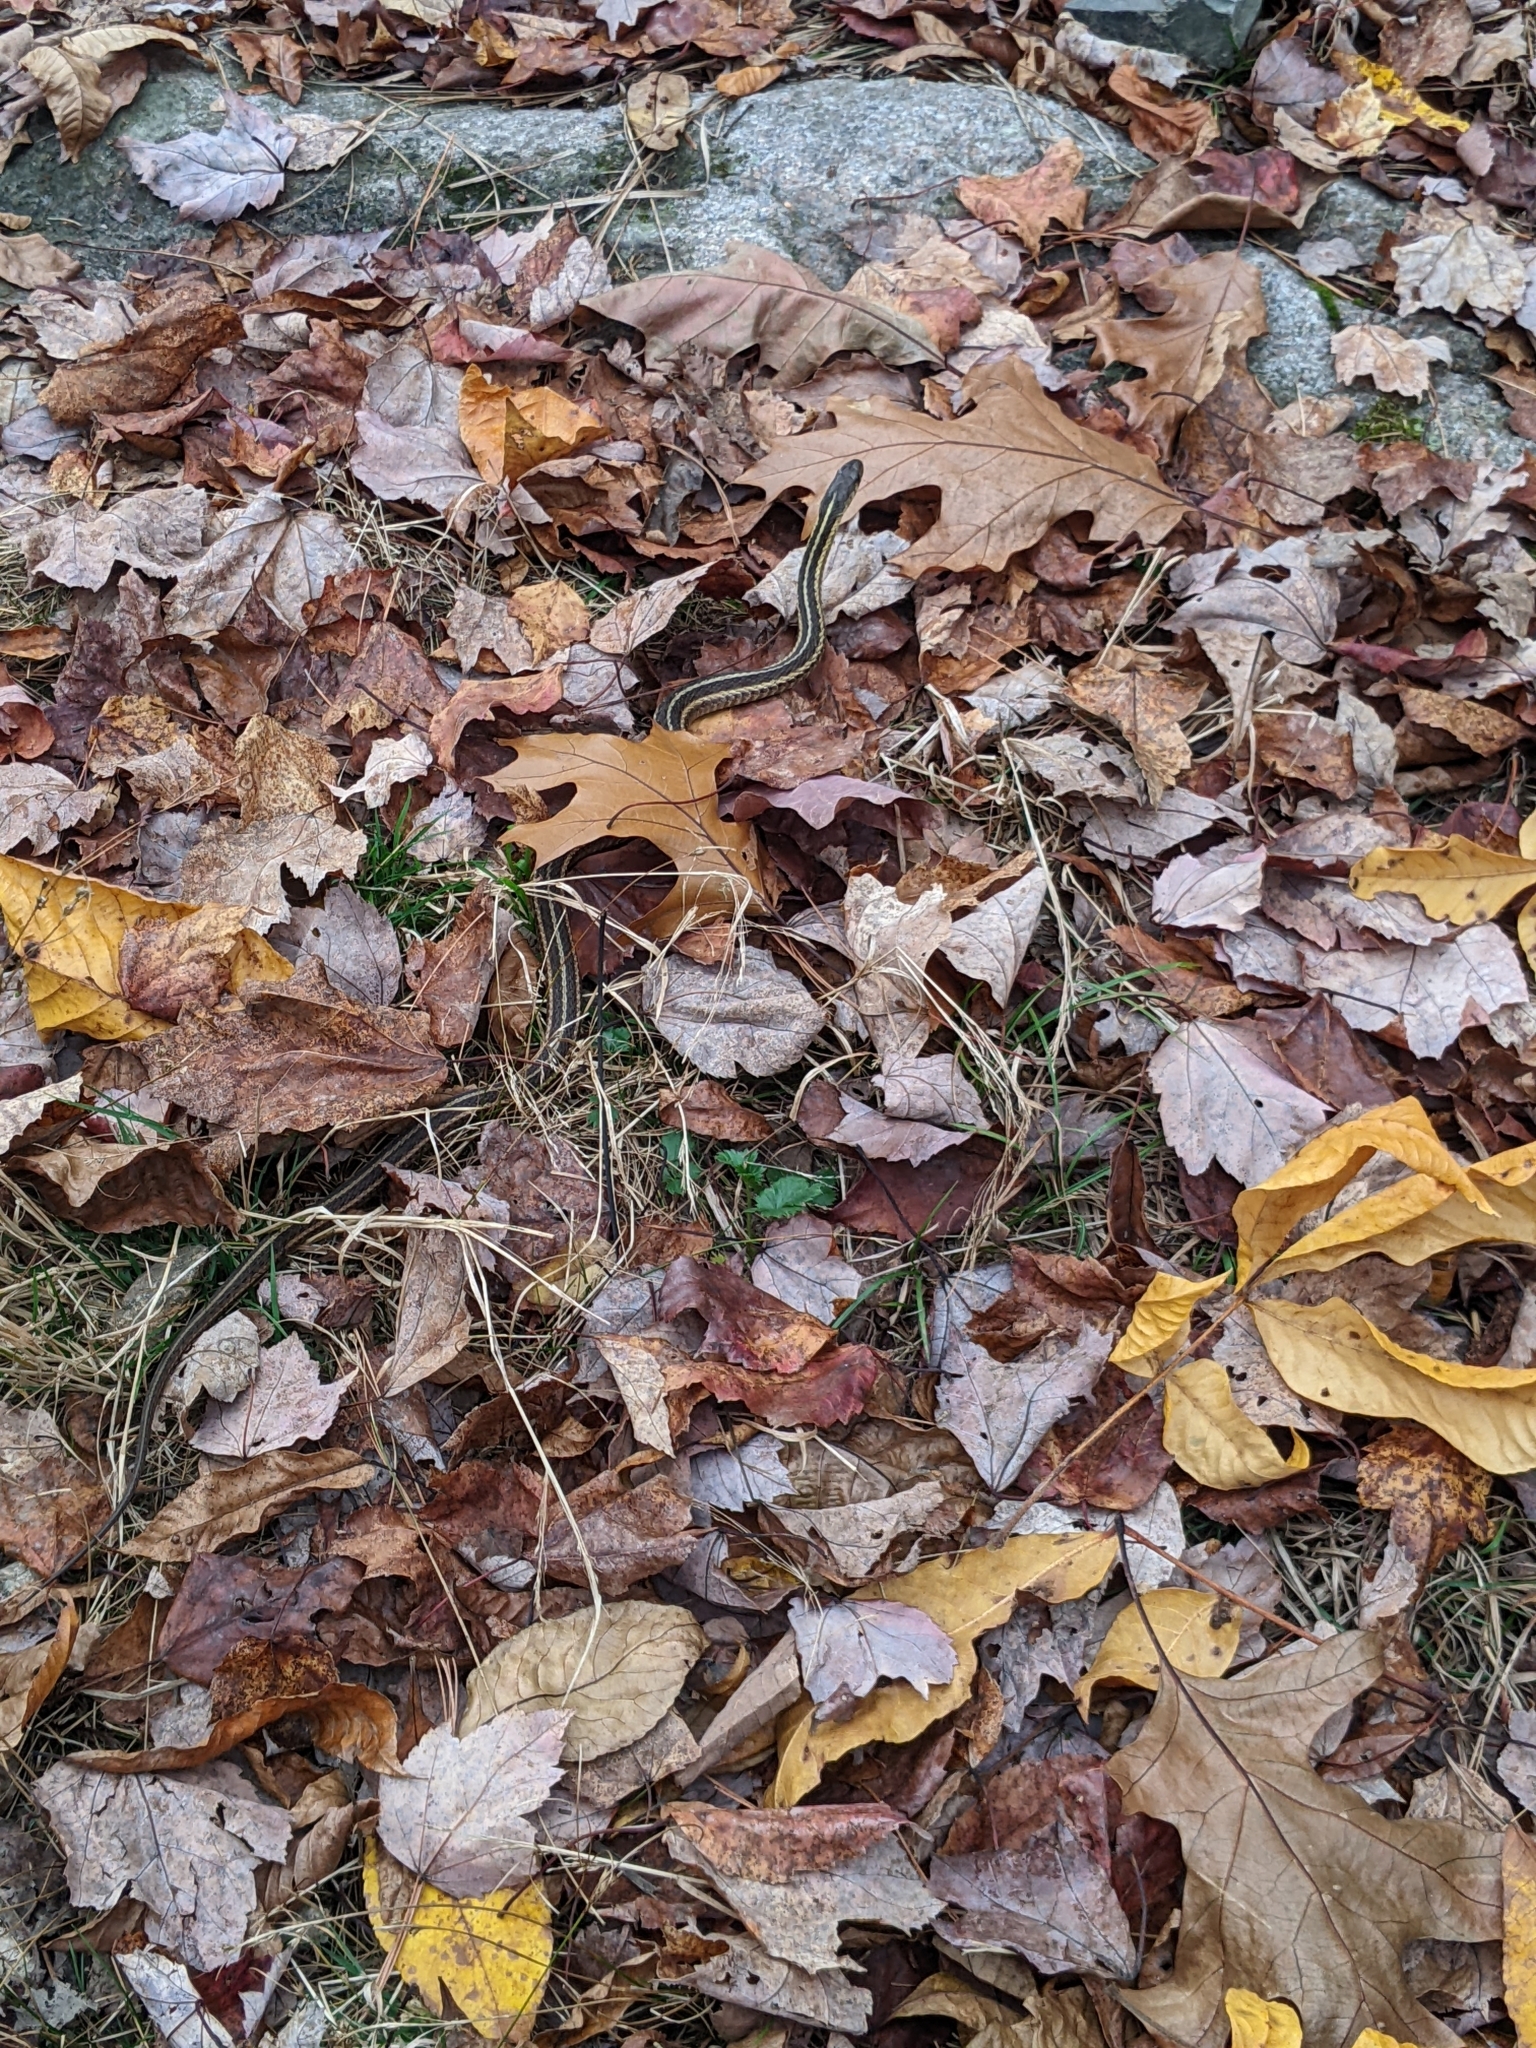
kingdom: Animalia
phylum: Chordata
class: Squamata
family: Colubridae
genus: Thamnophis
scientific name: Thamnophis sirtalis
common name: Common garter snake
